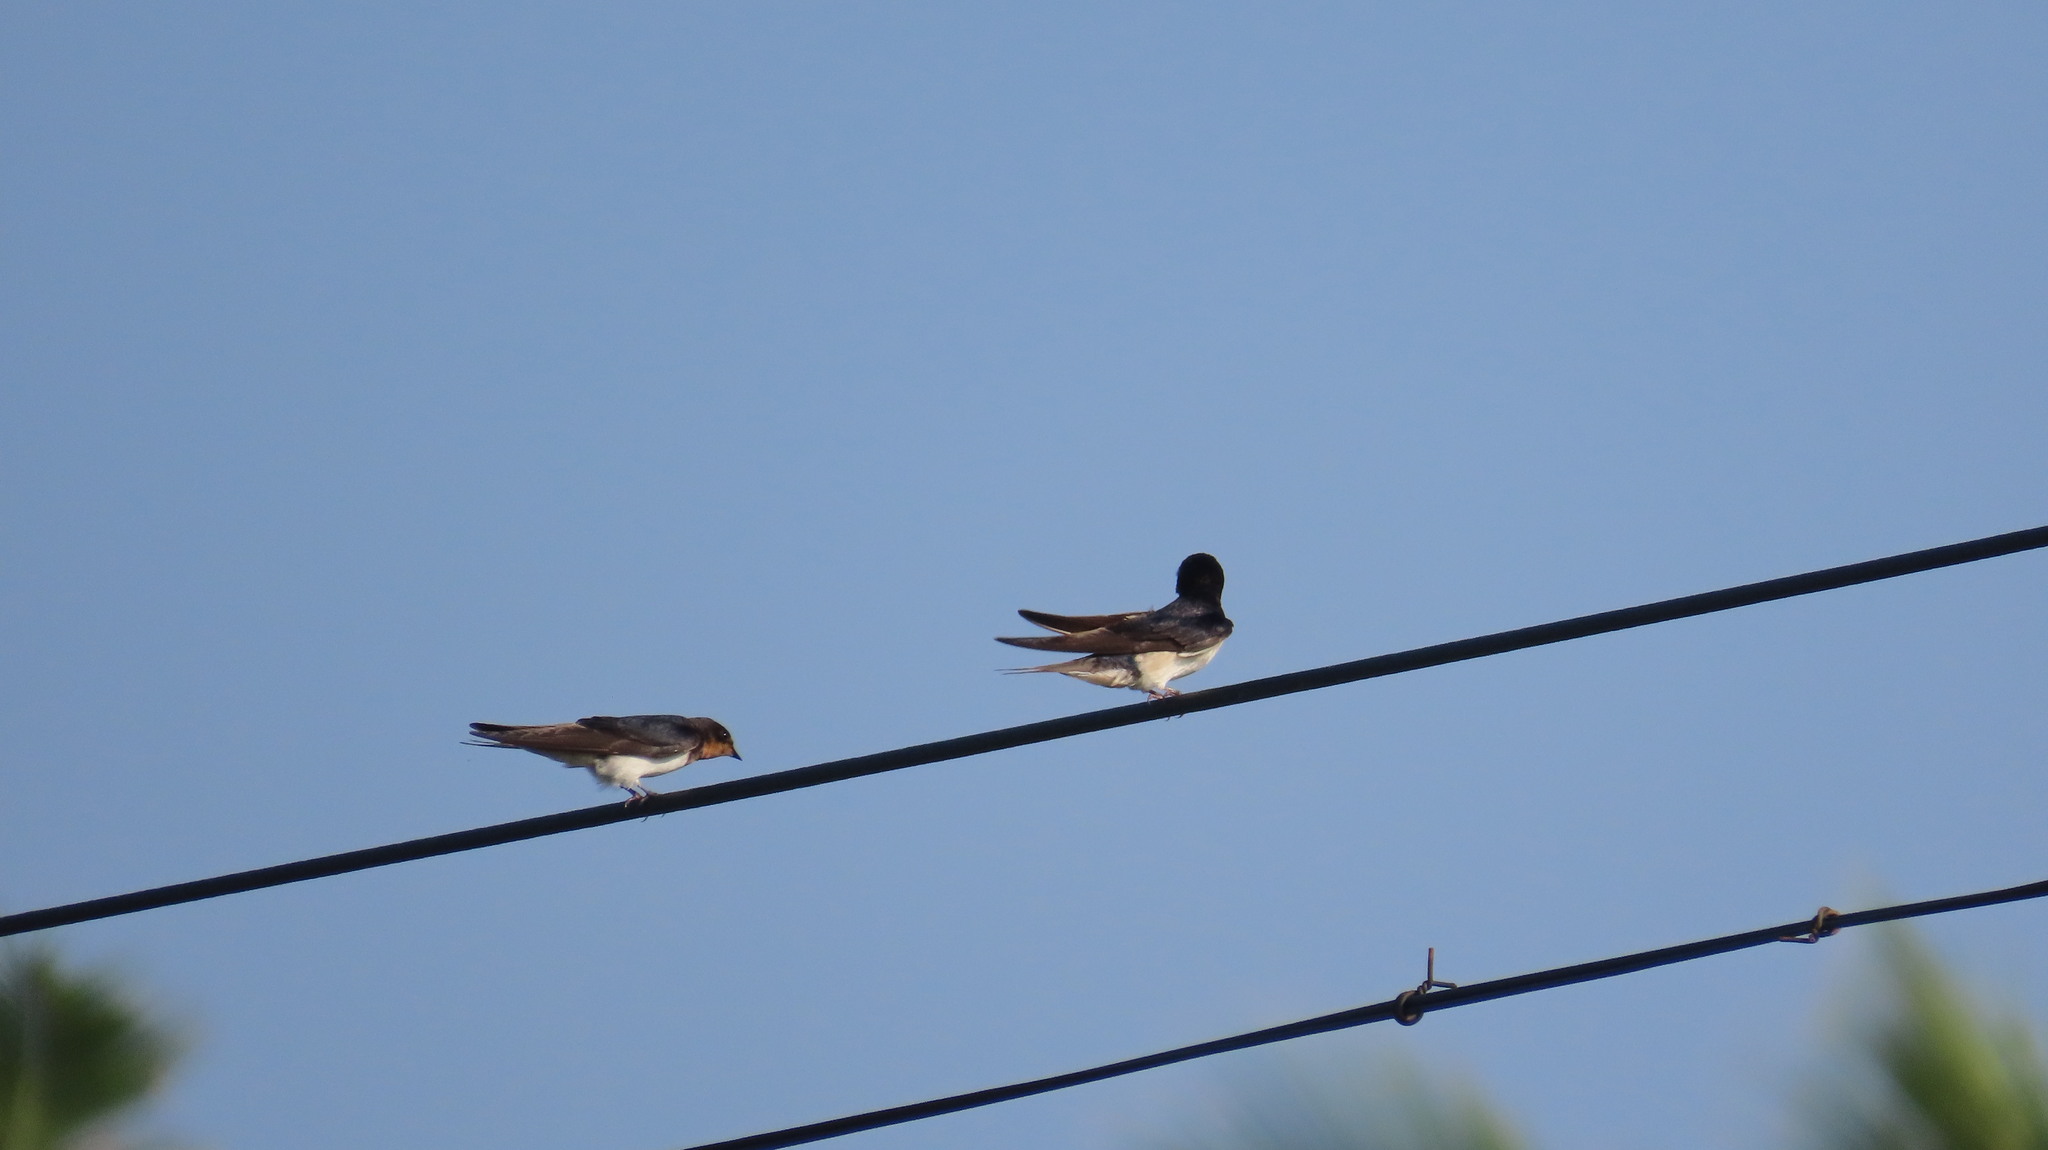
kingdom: Animalia
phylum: Chordata
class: Aves
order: Passeriformes
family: Hirundinidae
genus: Hirundo
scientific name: Hirundo rustica
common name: Barn swallow
